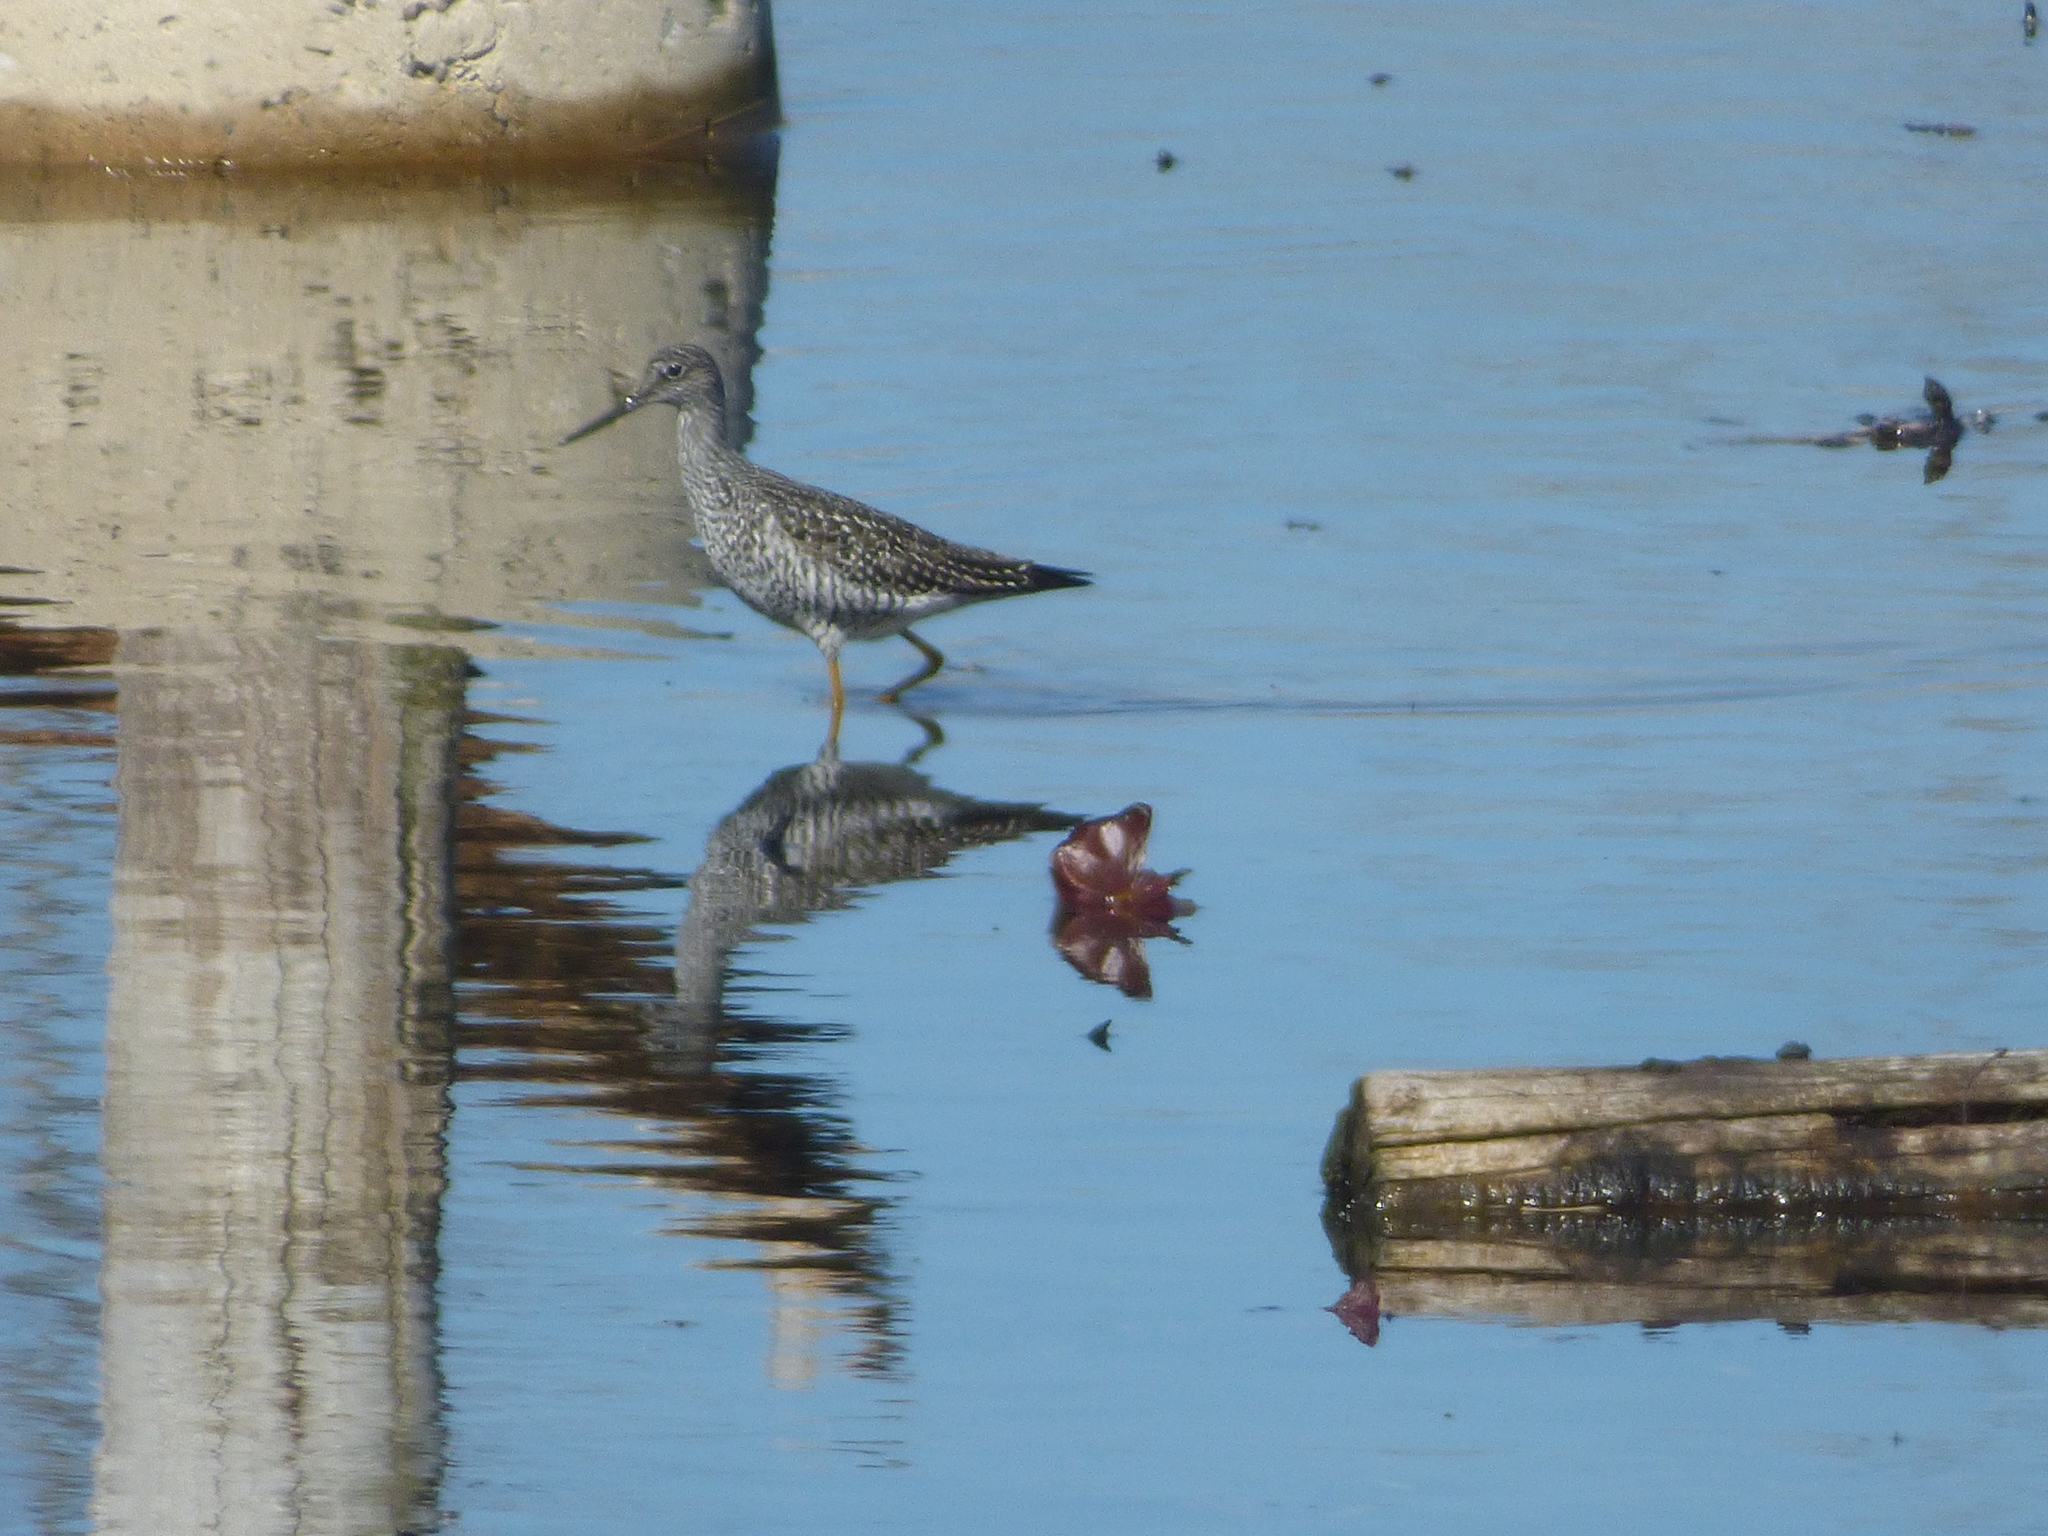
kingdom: Animalia
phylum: Chordata
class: Aves
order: Charadriiformes
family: Scolopacidae
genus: Tringa
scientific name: Tringa melanoleuca
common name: Greater yellowlegs
